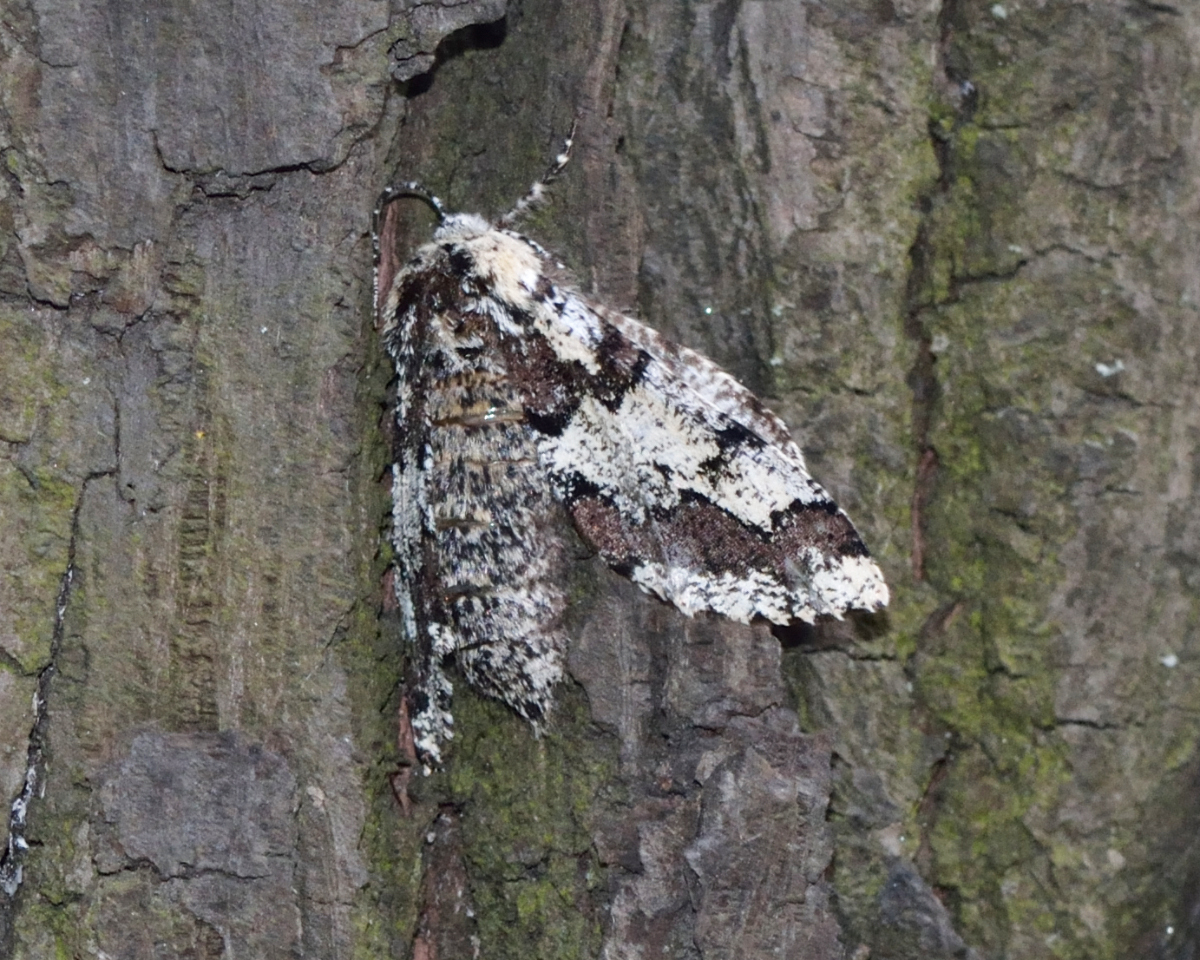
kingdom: Animalia
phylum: Arthropoda
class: Insecta
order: Lepidoptera
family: Geometridae
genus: Biston
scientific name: Biston strataria
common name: Oak beauty
